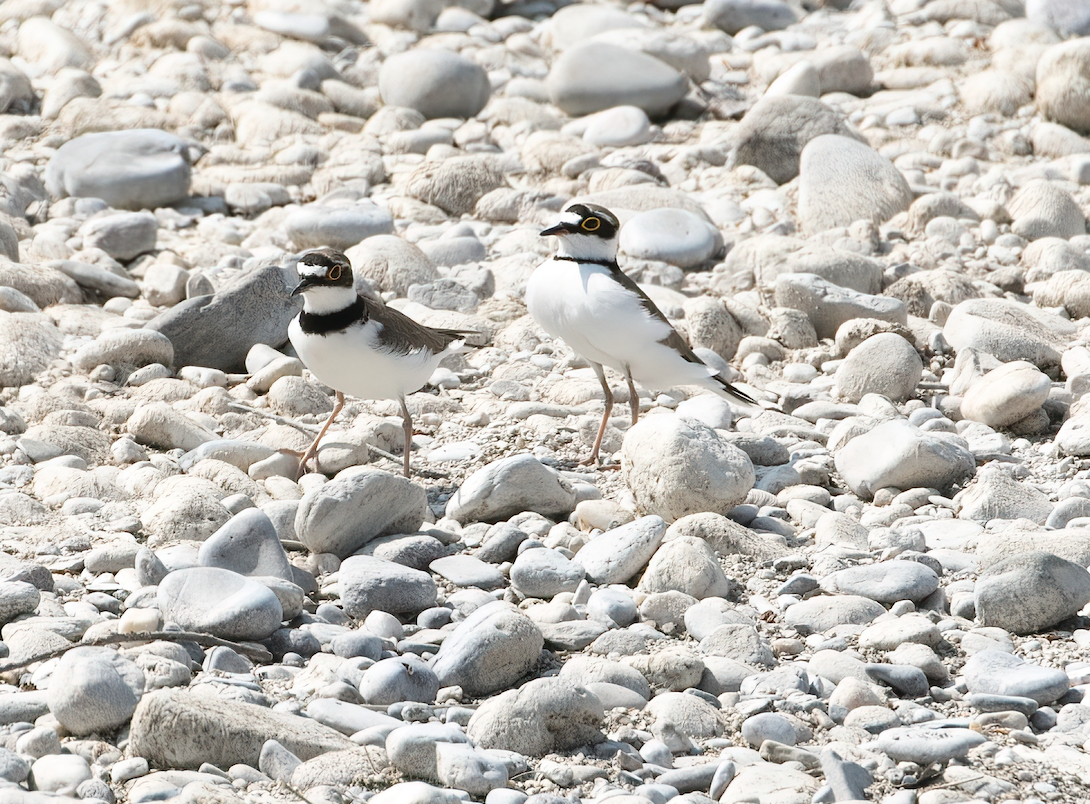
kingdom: Animalia
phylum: Chordata
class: Aves
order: Charadriiformes
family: Charadriidae
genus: Charadrius
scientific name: Charadrius dubius
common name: Little ringed plover
